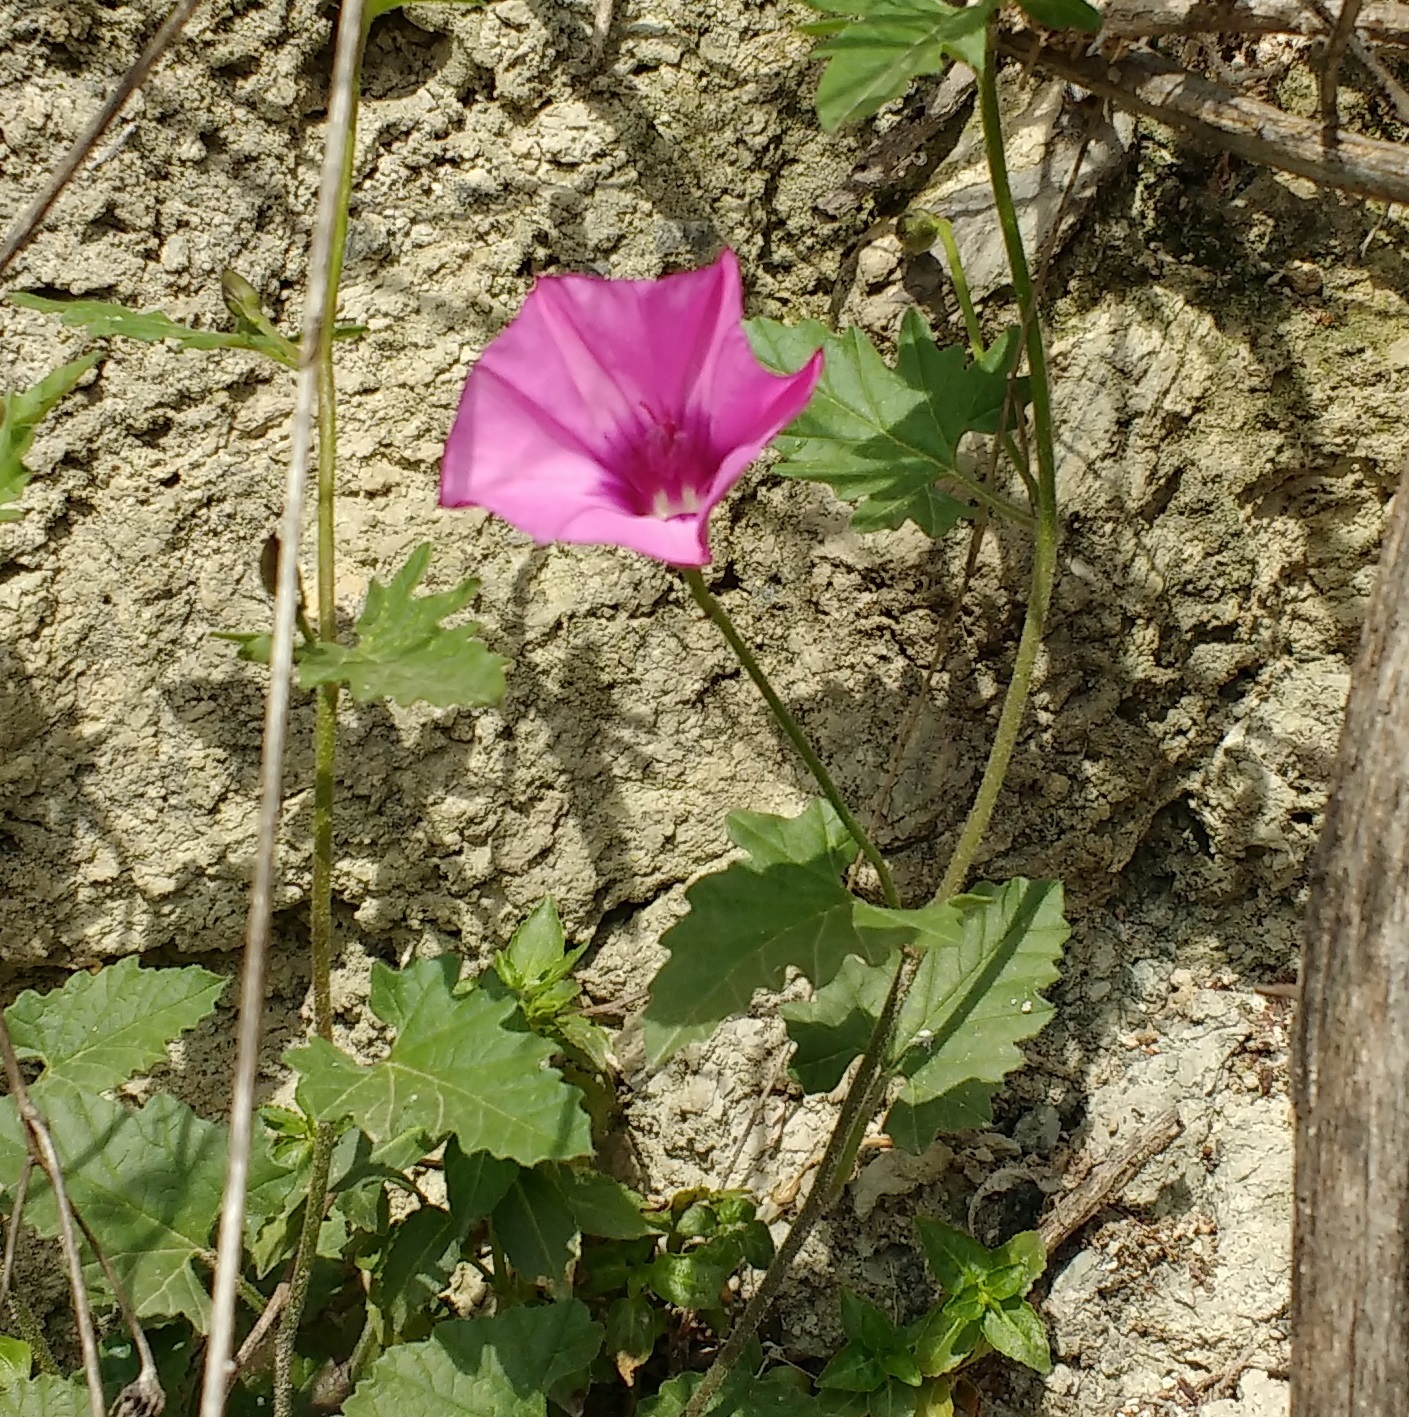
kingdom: Plantae
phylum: Tracheophyta
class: Magnoliopsida
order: Solanales
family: Convolvulaceae
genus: Convolvulus
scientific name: Convolvulus althaeoides
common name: Mallow bindweed
